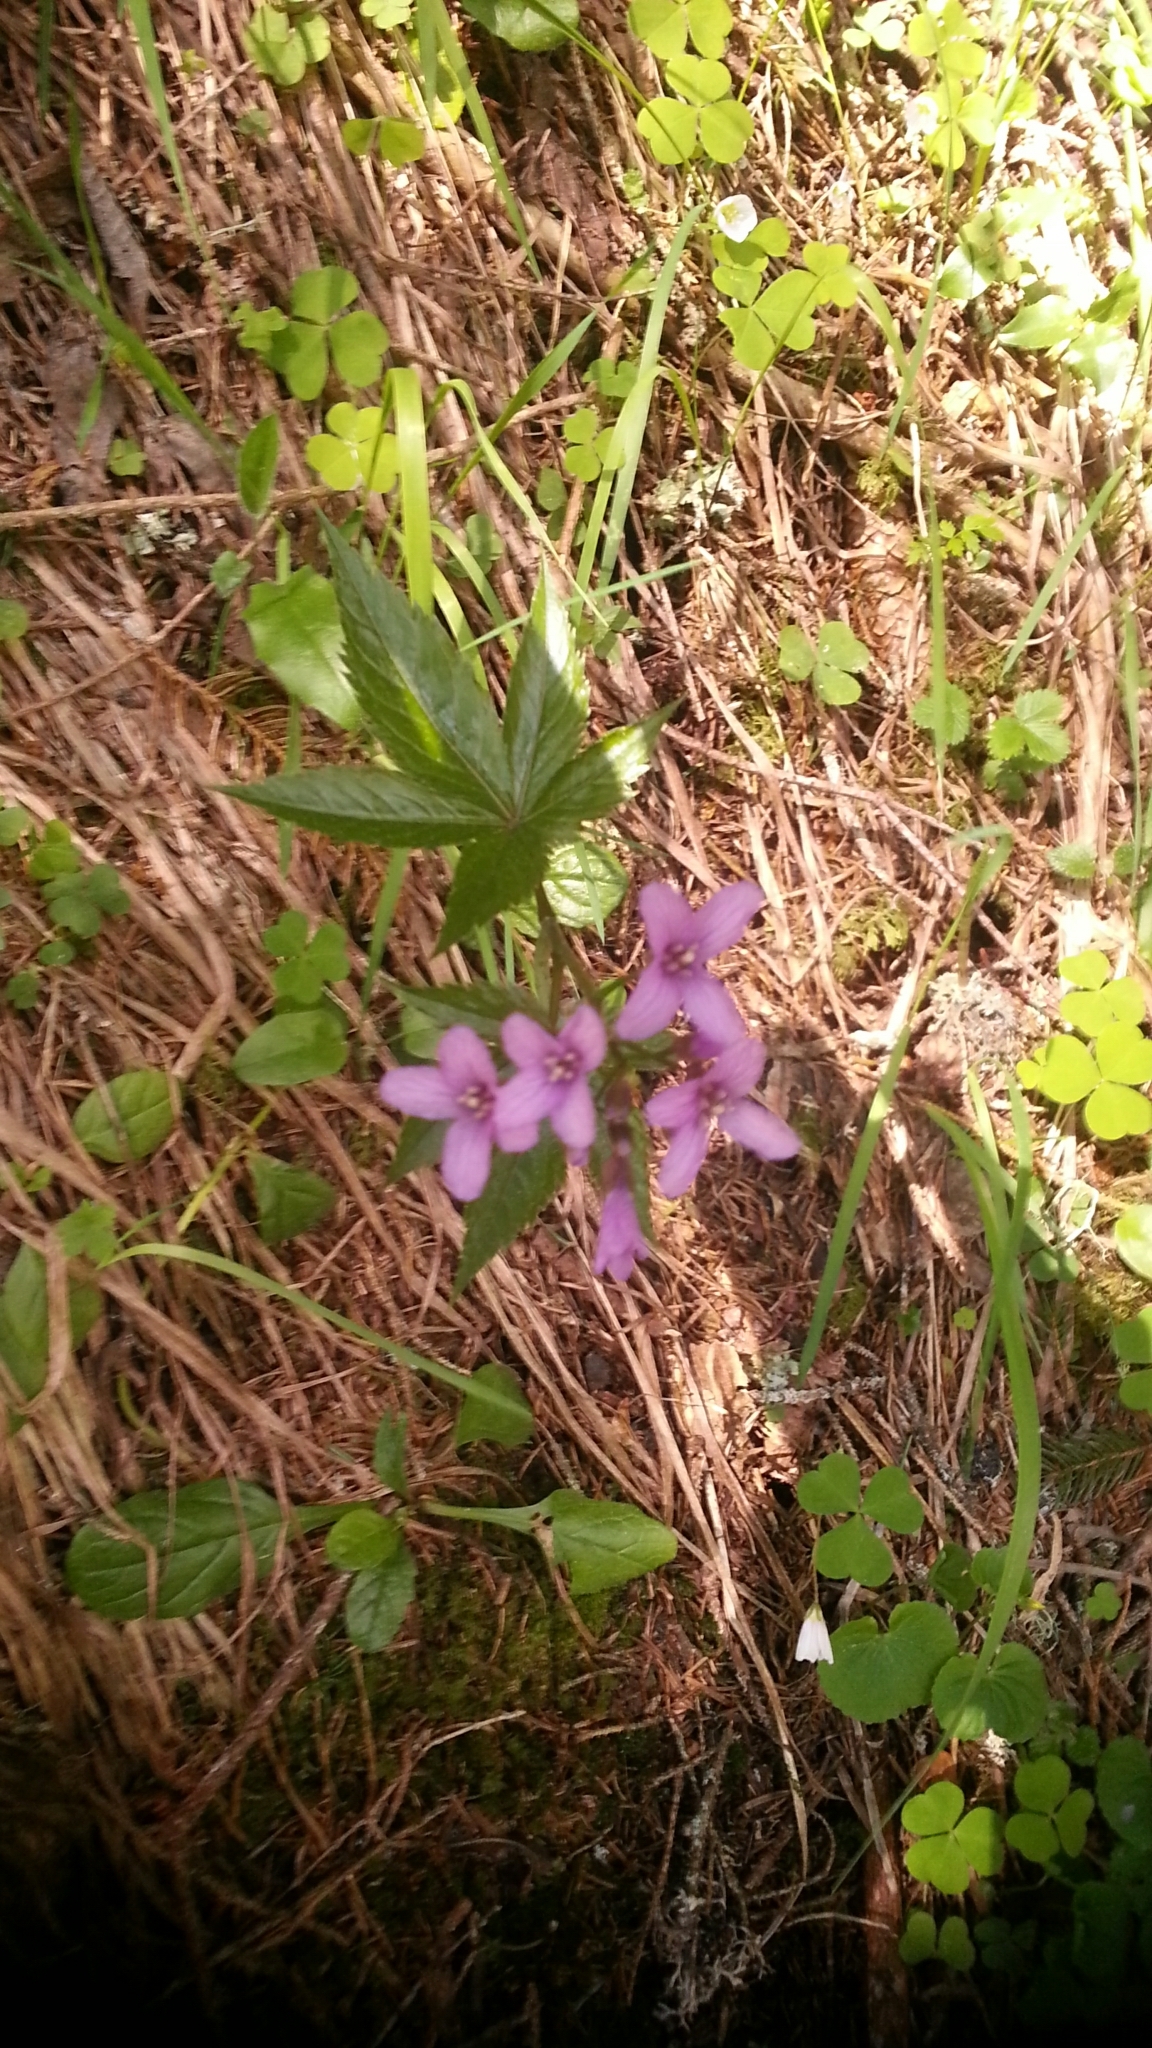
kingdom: Plantae
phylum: Tracheophyta
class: Magnoliopsida
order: Brassicales
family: Brassicaceae
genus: Cardamine
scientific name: Cardamine pentaphyllos
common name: Five-leaflet bitter-cress
